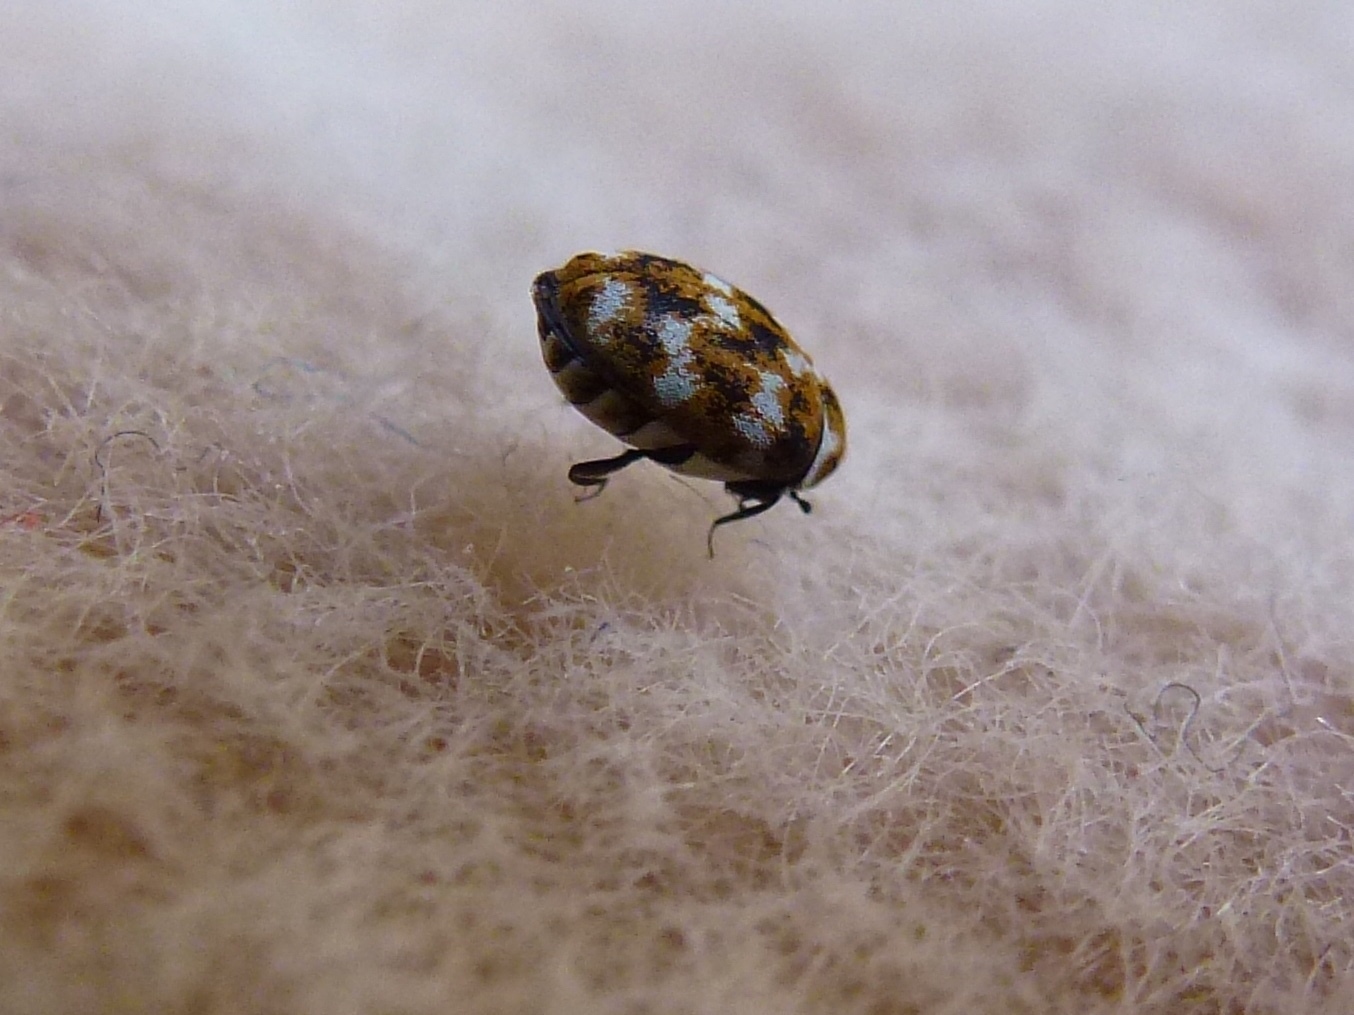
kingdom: Animalia
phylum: Arthropoda
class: Insecta
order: Coleoptera
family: Dermestidae
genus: Anthrenus
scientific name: Anthrenus verbasci
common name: Varied carpet beetle
